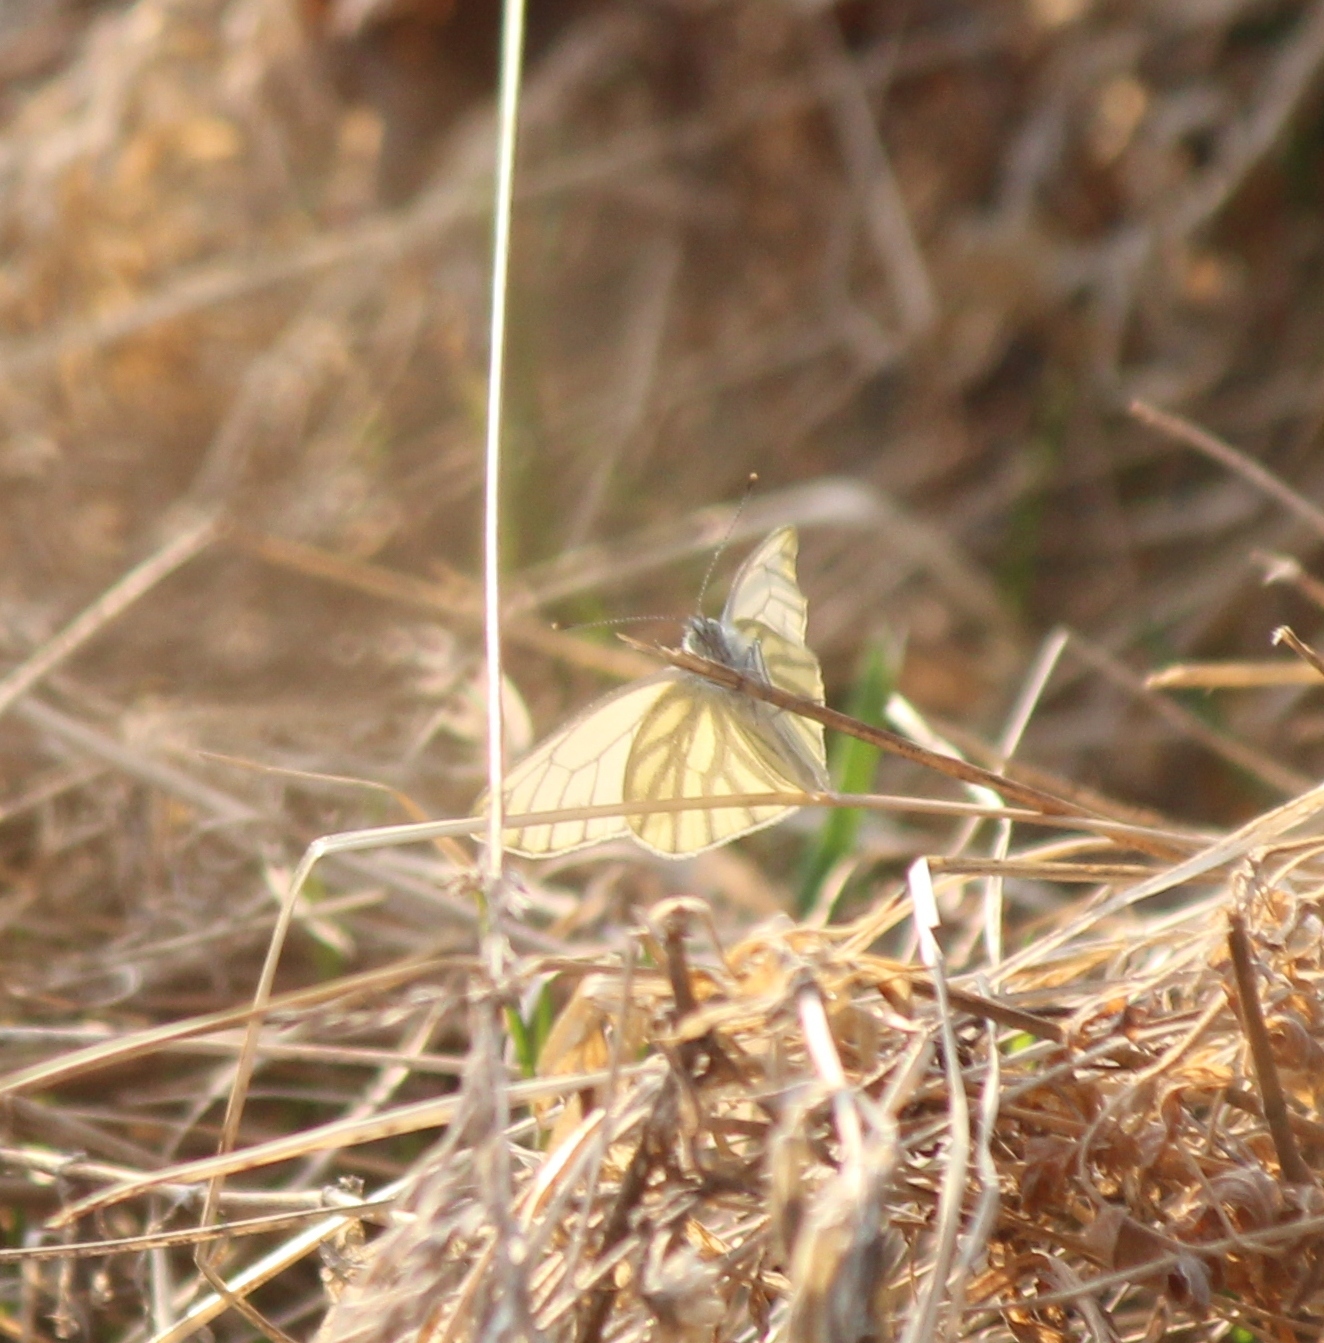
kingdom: Animalia
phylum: Arthropoda
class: Insecta
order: Lepidoptera
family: Pieridae
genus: Pieris
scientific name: Pieris napi
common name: Green-veined white
